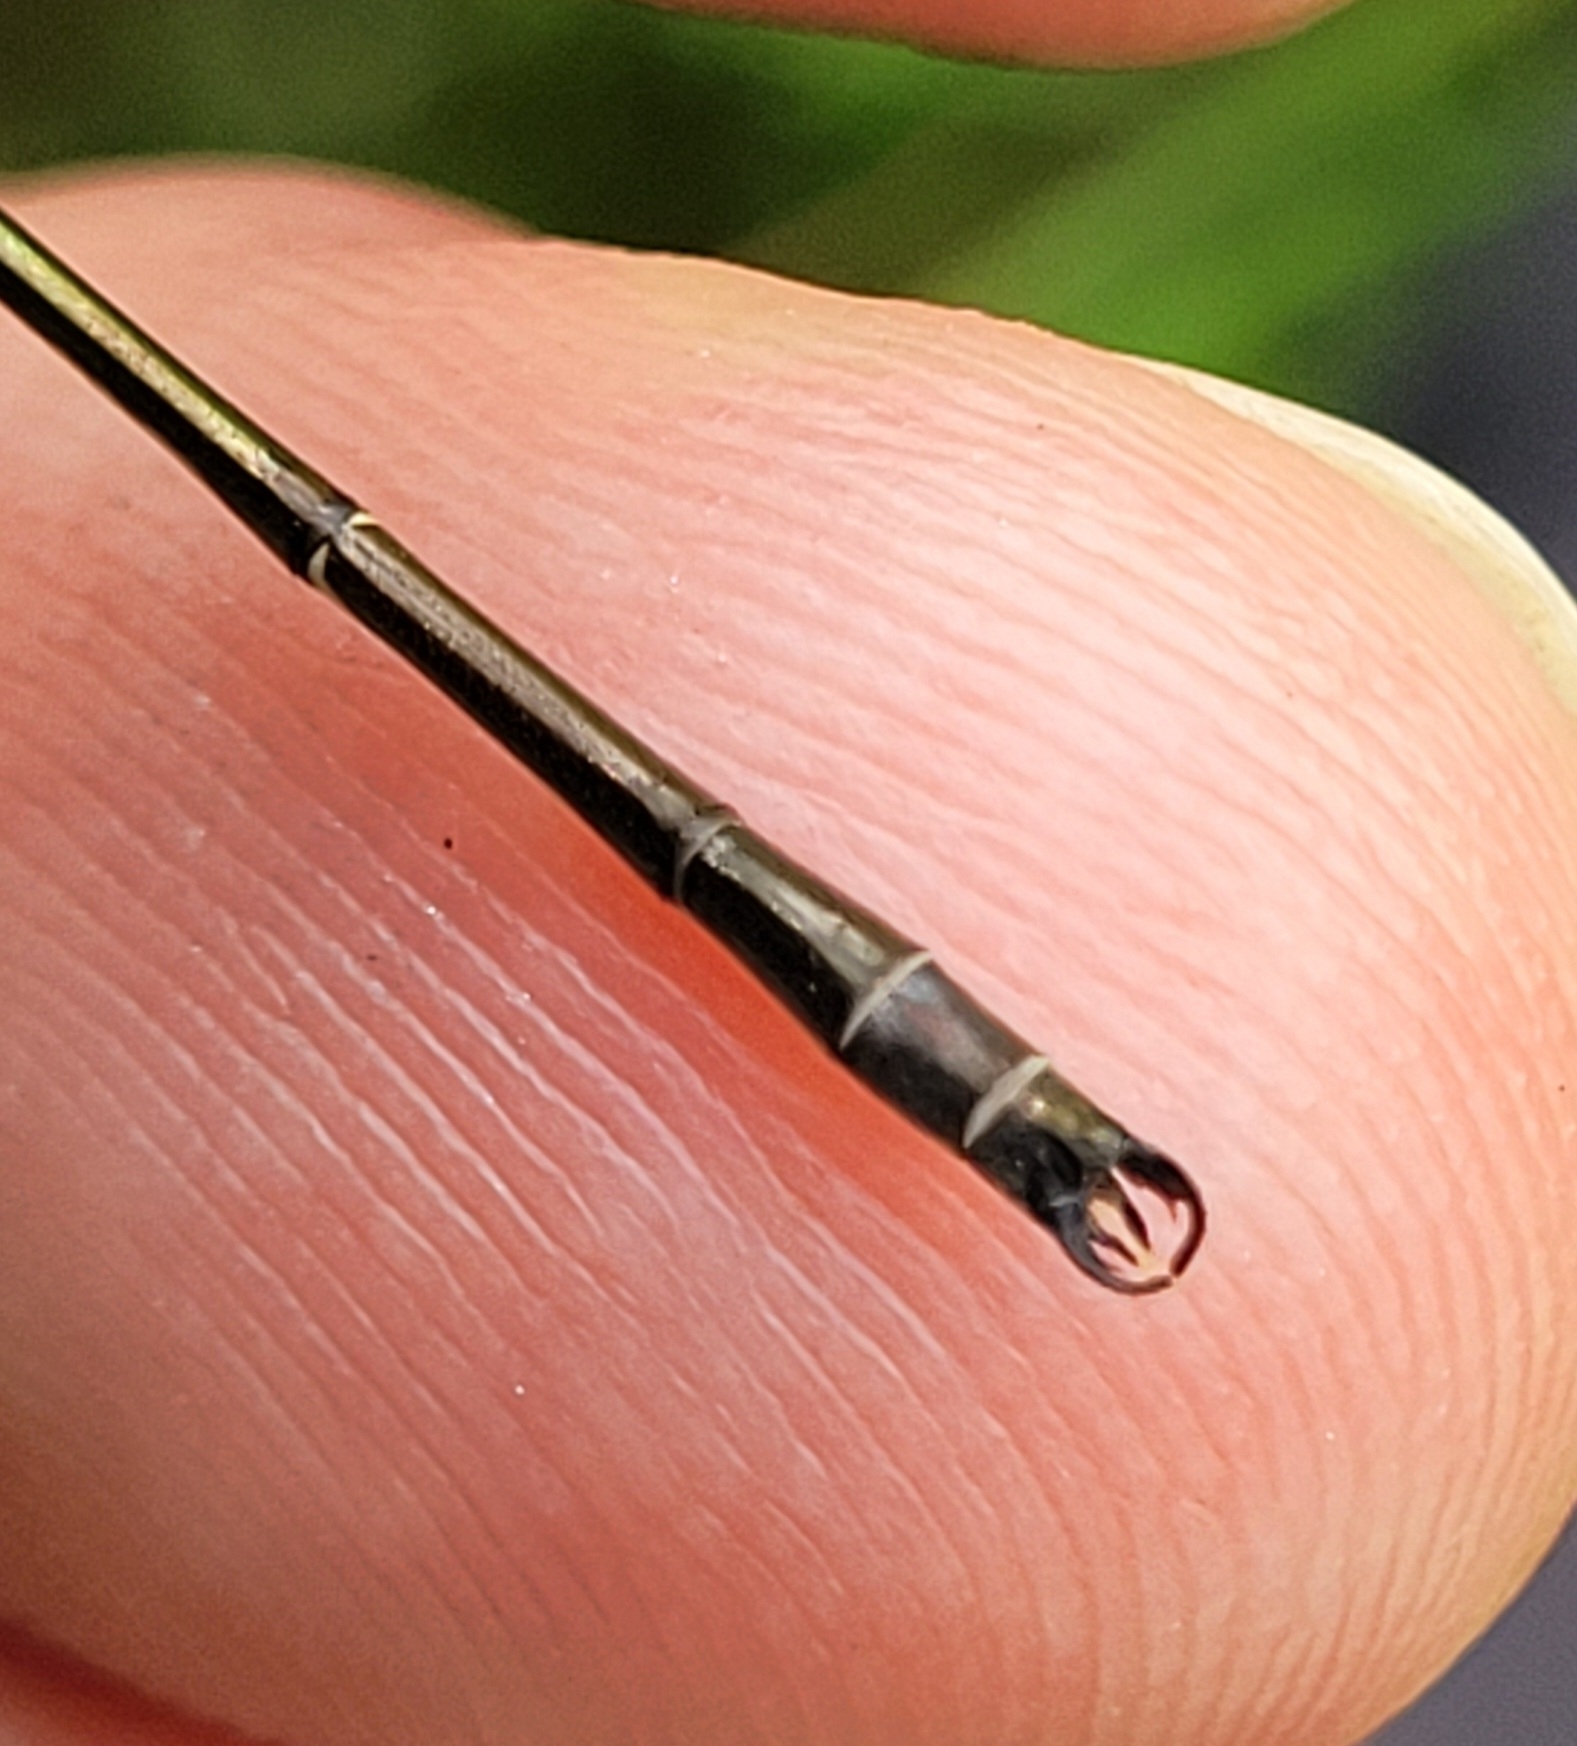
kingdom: Animalia
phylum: Arthropoda
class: Insecta
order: Odonata
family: Lestidae
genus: Lestes
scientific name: Lestes rectangularis
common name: Slender spreadwing
